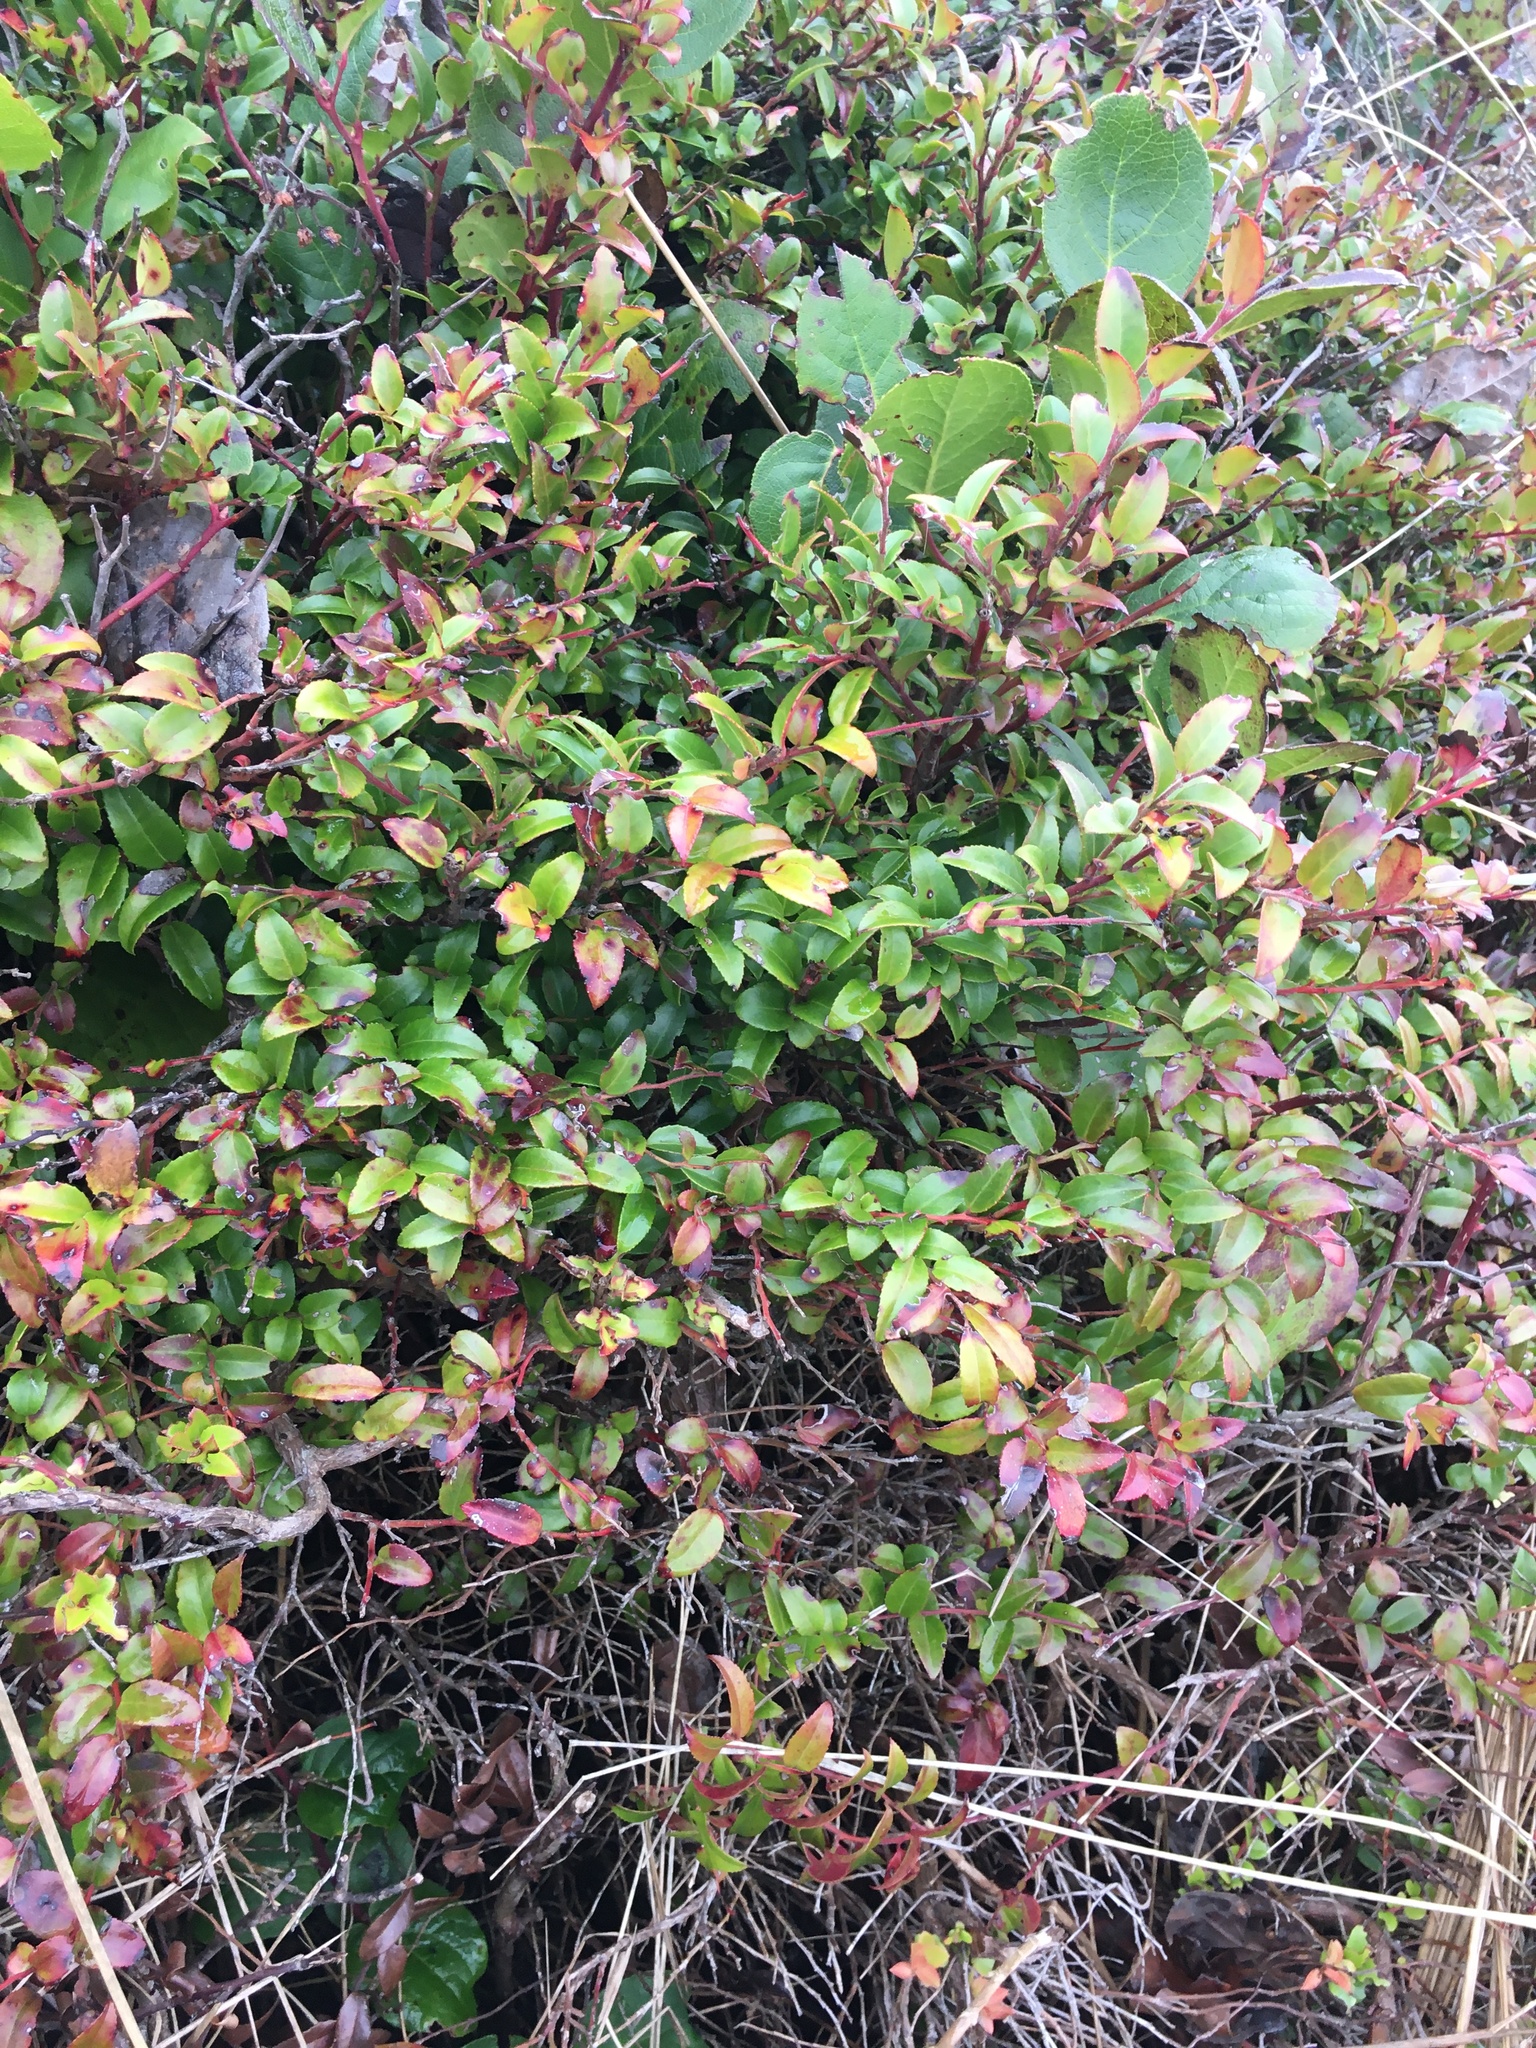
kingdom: Plantae
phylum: Tracheophyta
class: Magnoliopsida
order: Ericales
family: Ericaceae
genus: Vaccinium
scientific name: Vaccinium ovatum
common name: California-huckleberry
